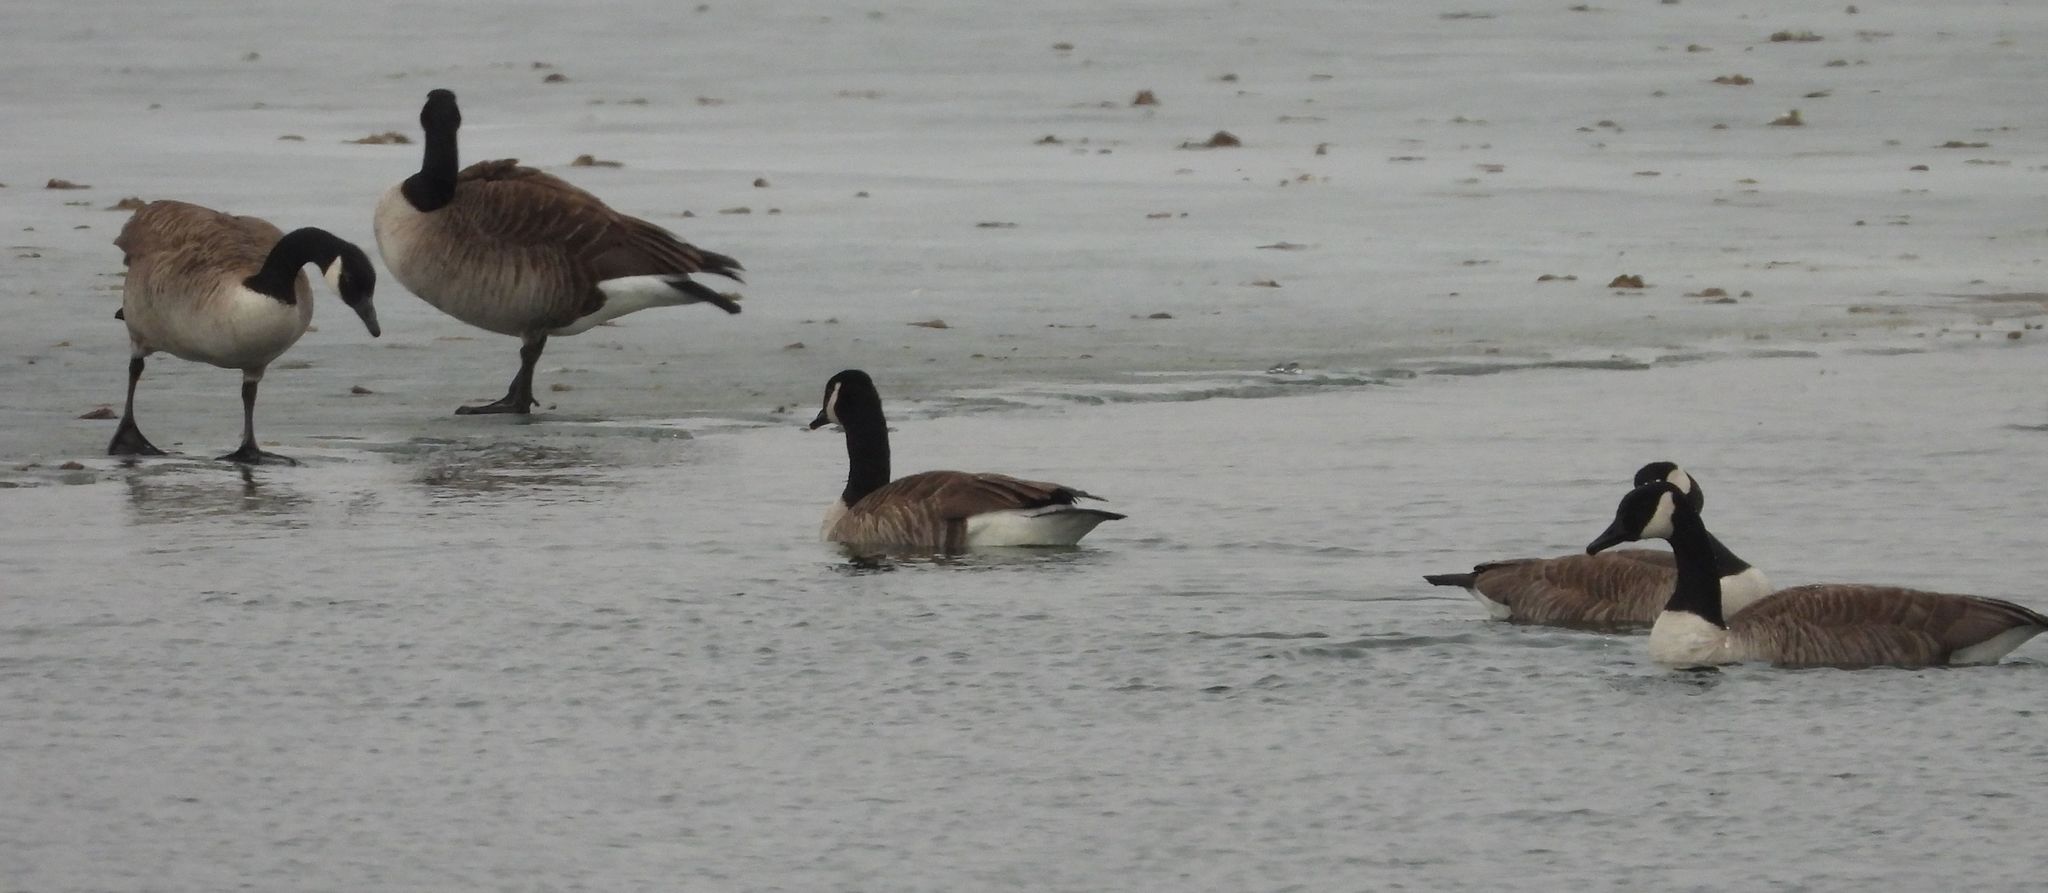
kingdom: Animalia
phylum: Chordata
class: Aves
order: Anseriformes
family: Anatidae
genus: Branta
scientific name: Branta canadensis
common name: Canada goose
